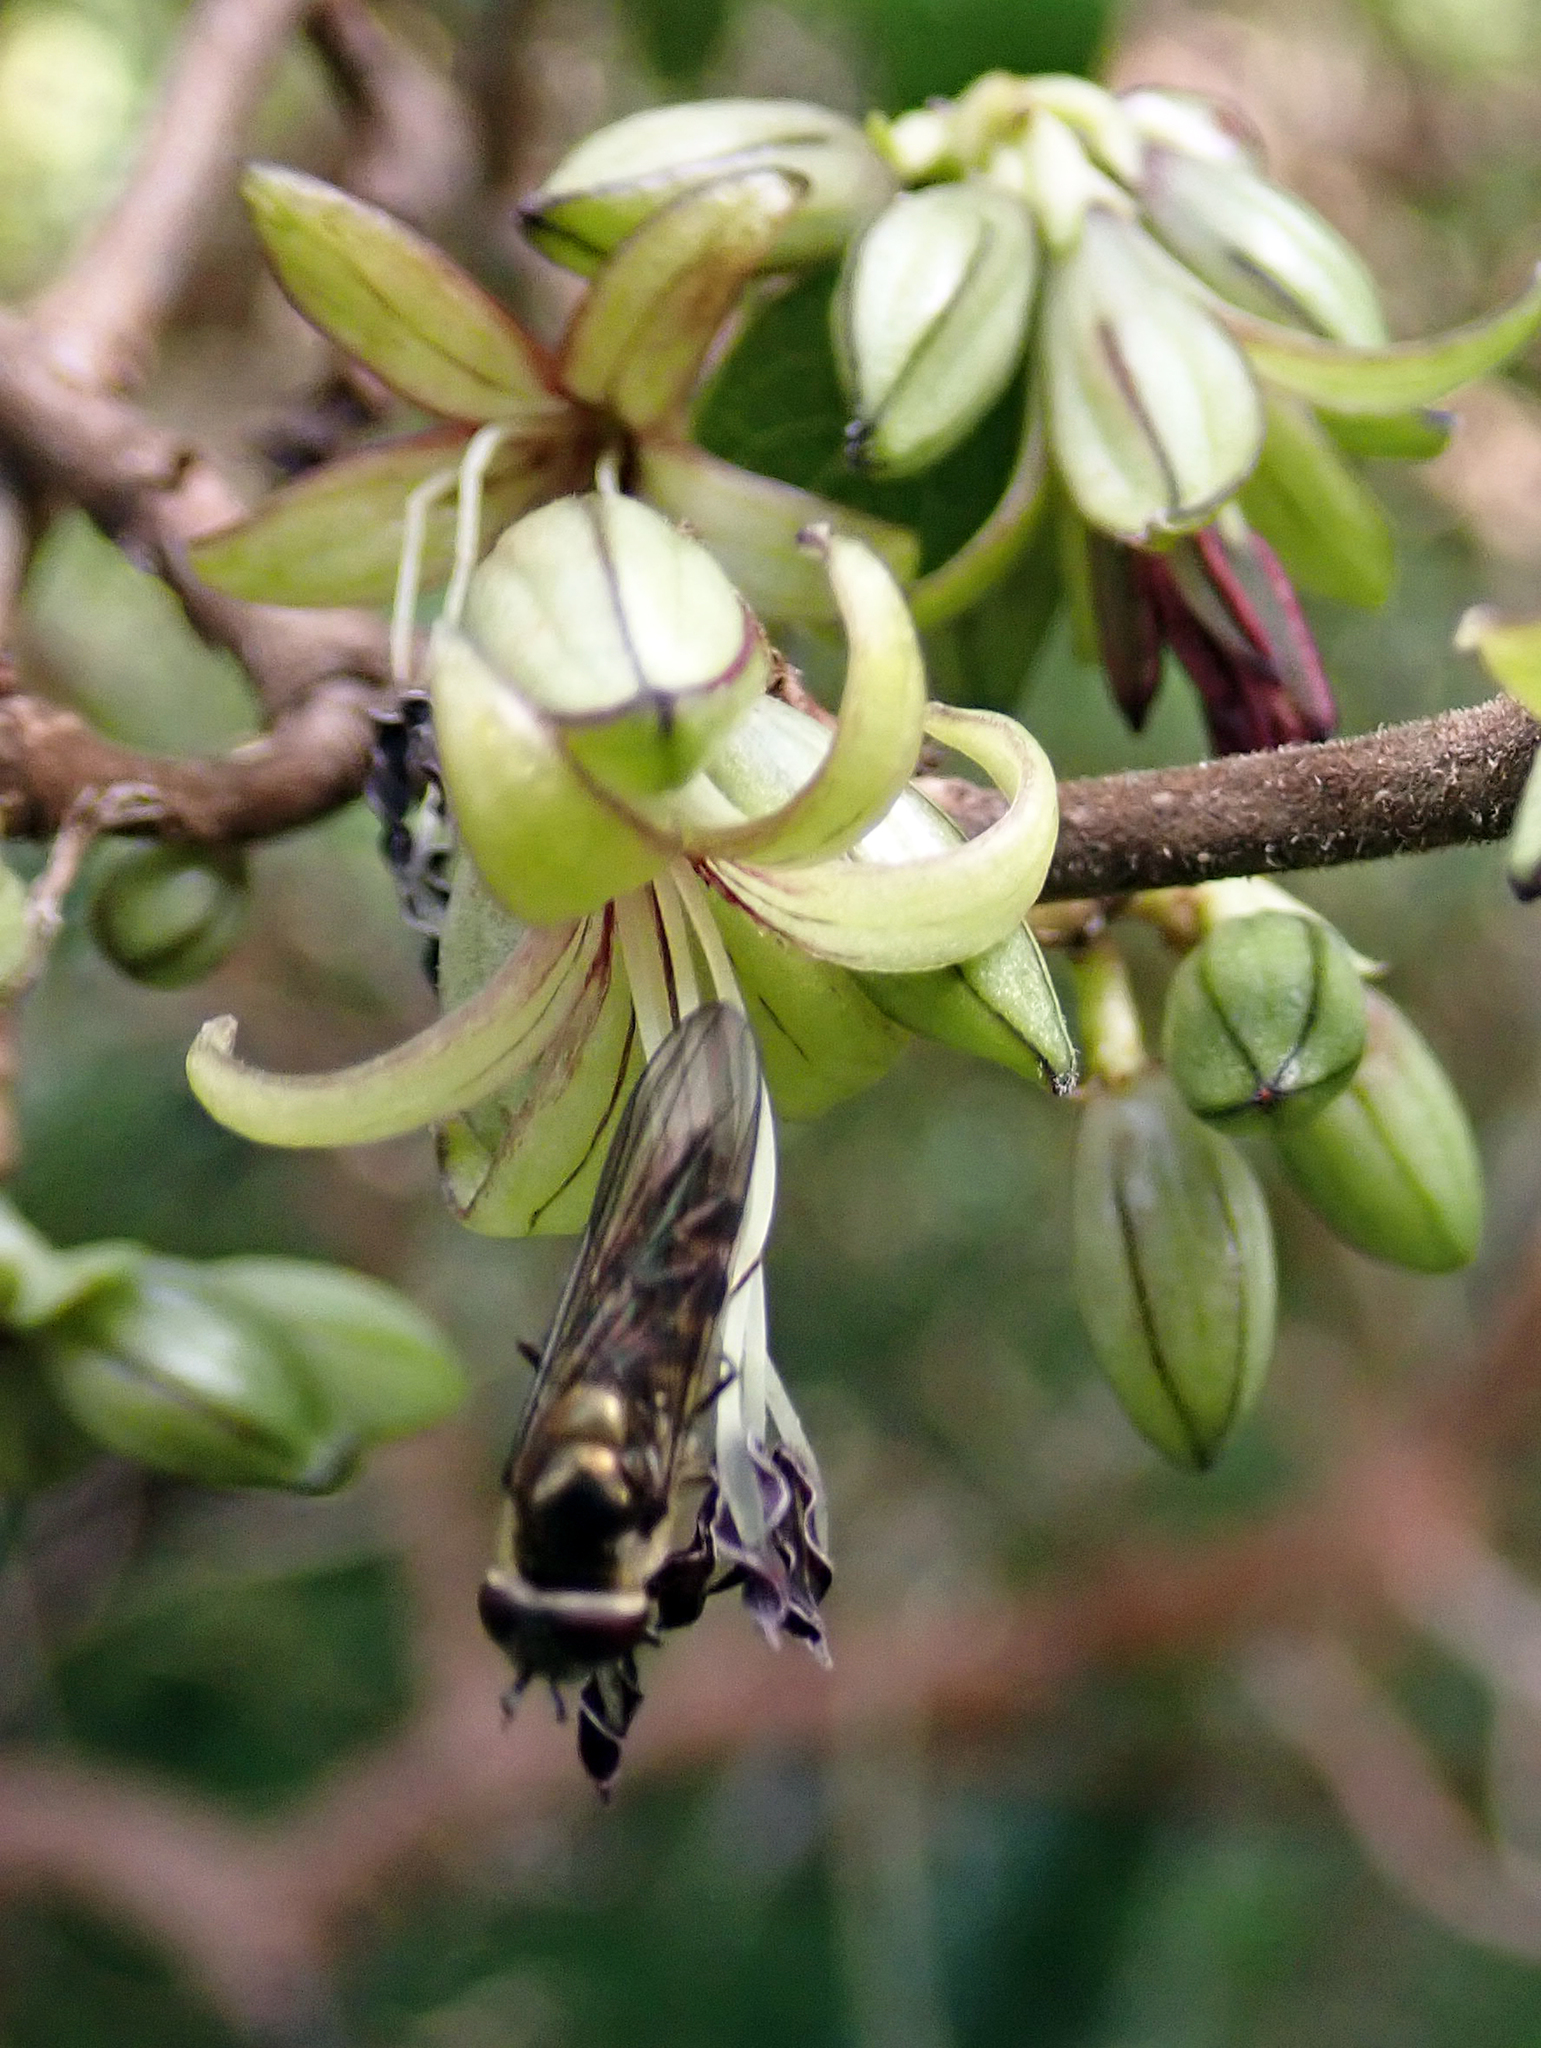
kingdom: Animalia
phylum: Arthropoda
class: Insecta
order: Diptera
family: Syrphidae
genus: Melangyna
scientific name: Melangyna novaezelandiae
